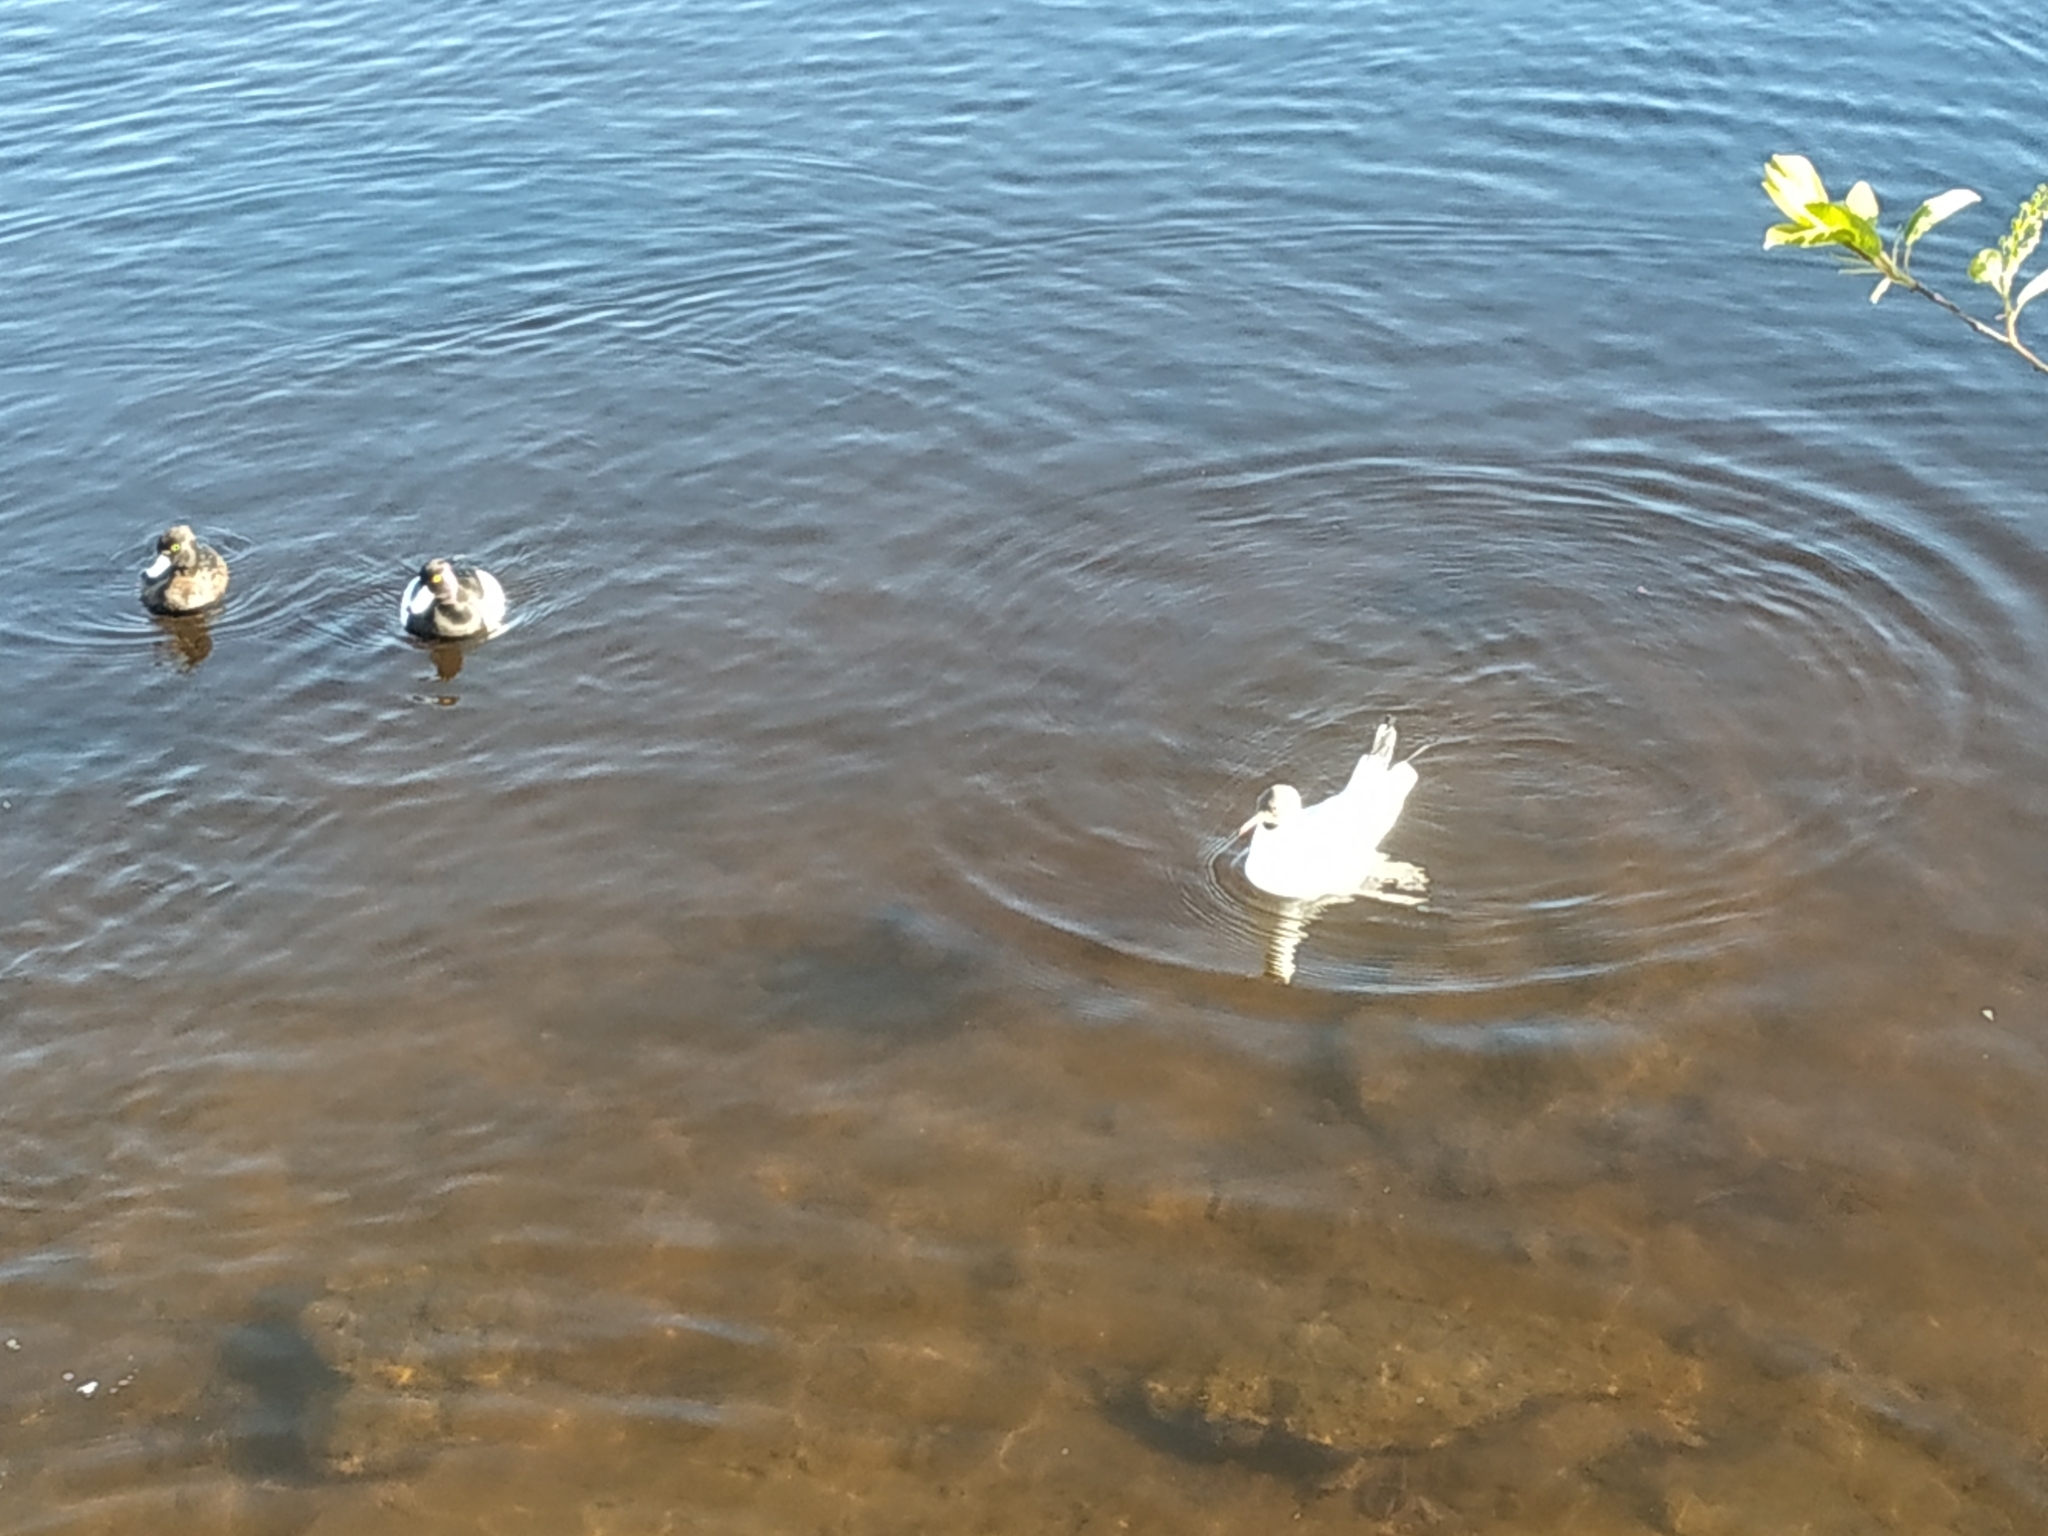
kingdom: Animalia
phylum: Chordata
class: Aves
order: Charadriiformes
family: Laridae
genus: Chroicocephalus
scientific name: Chroicocephalus ridibundus
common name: Black-headed gull
